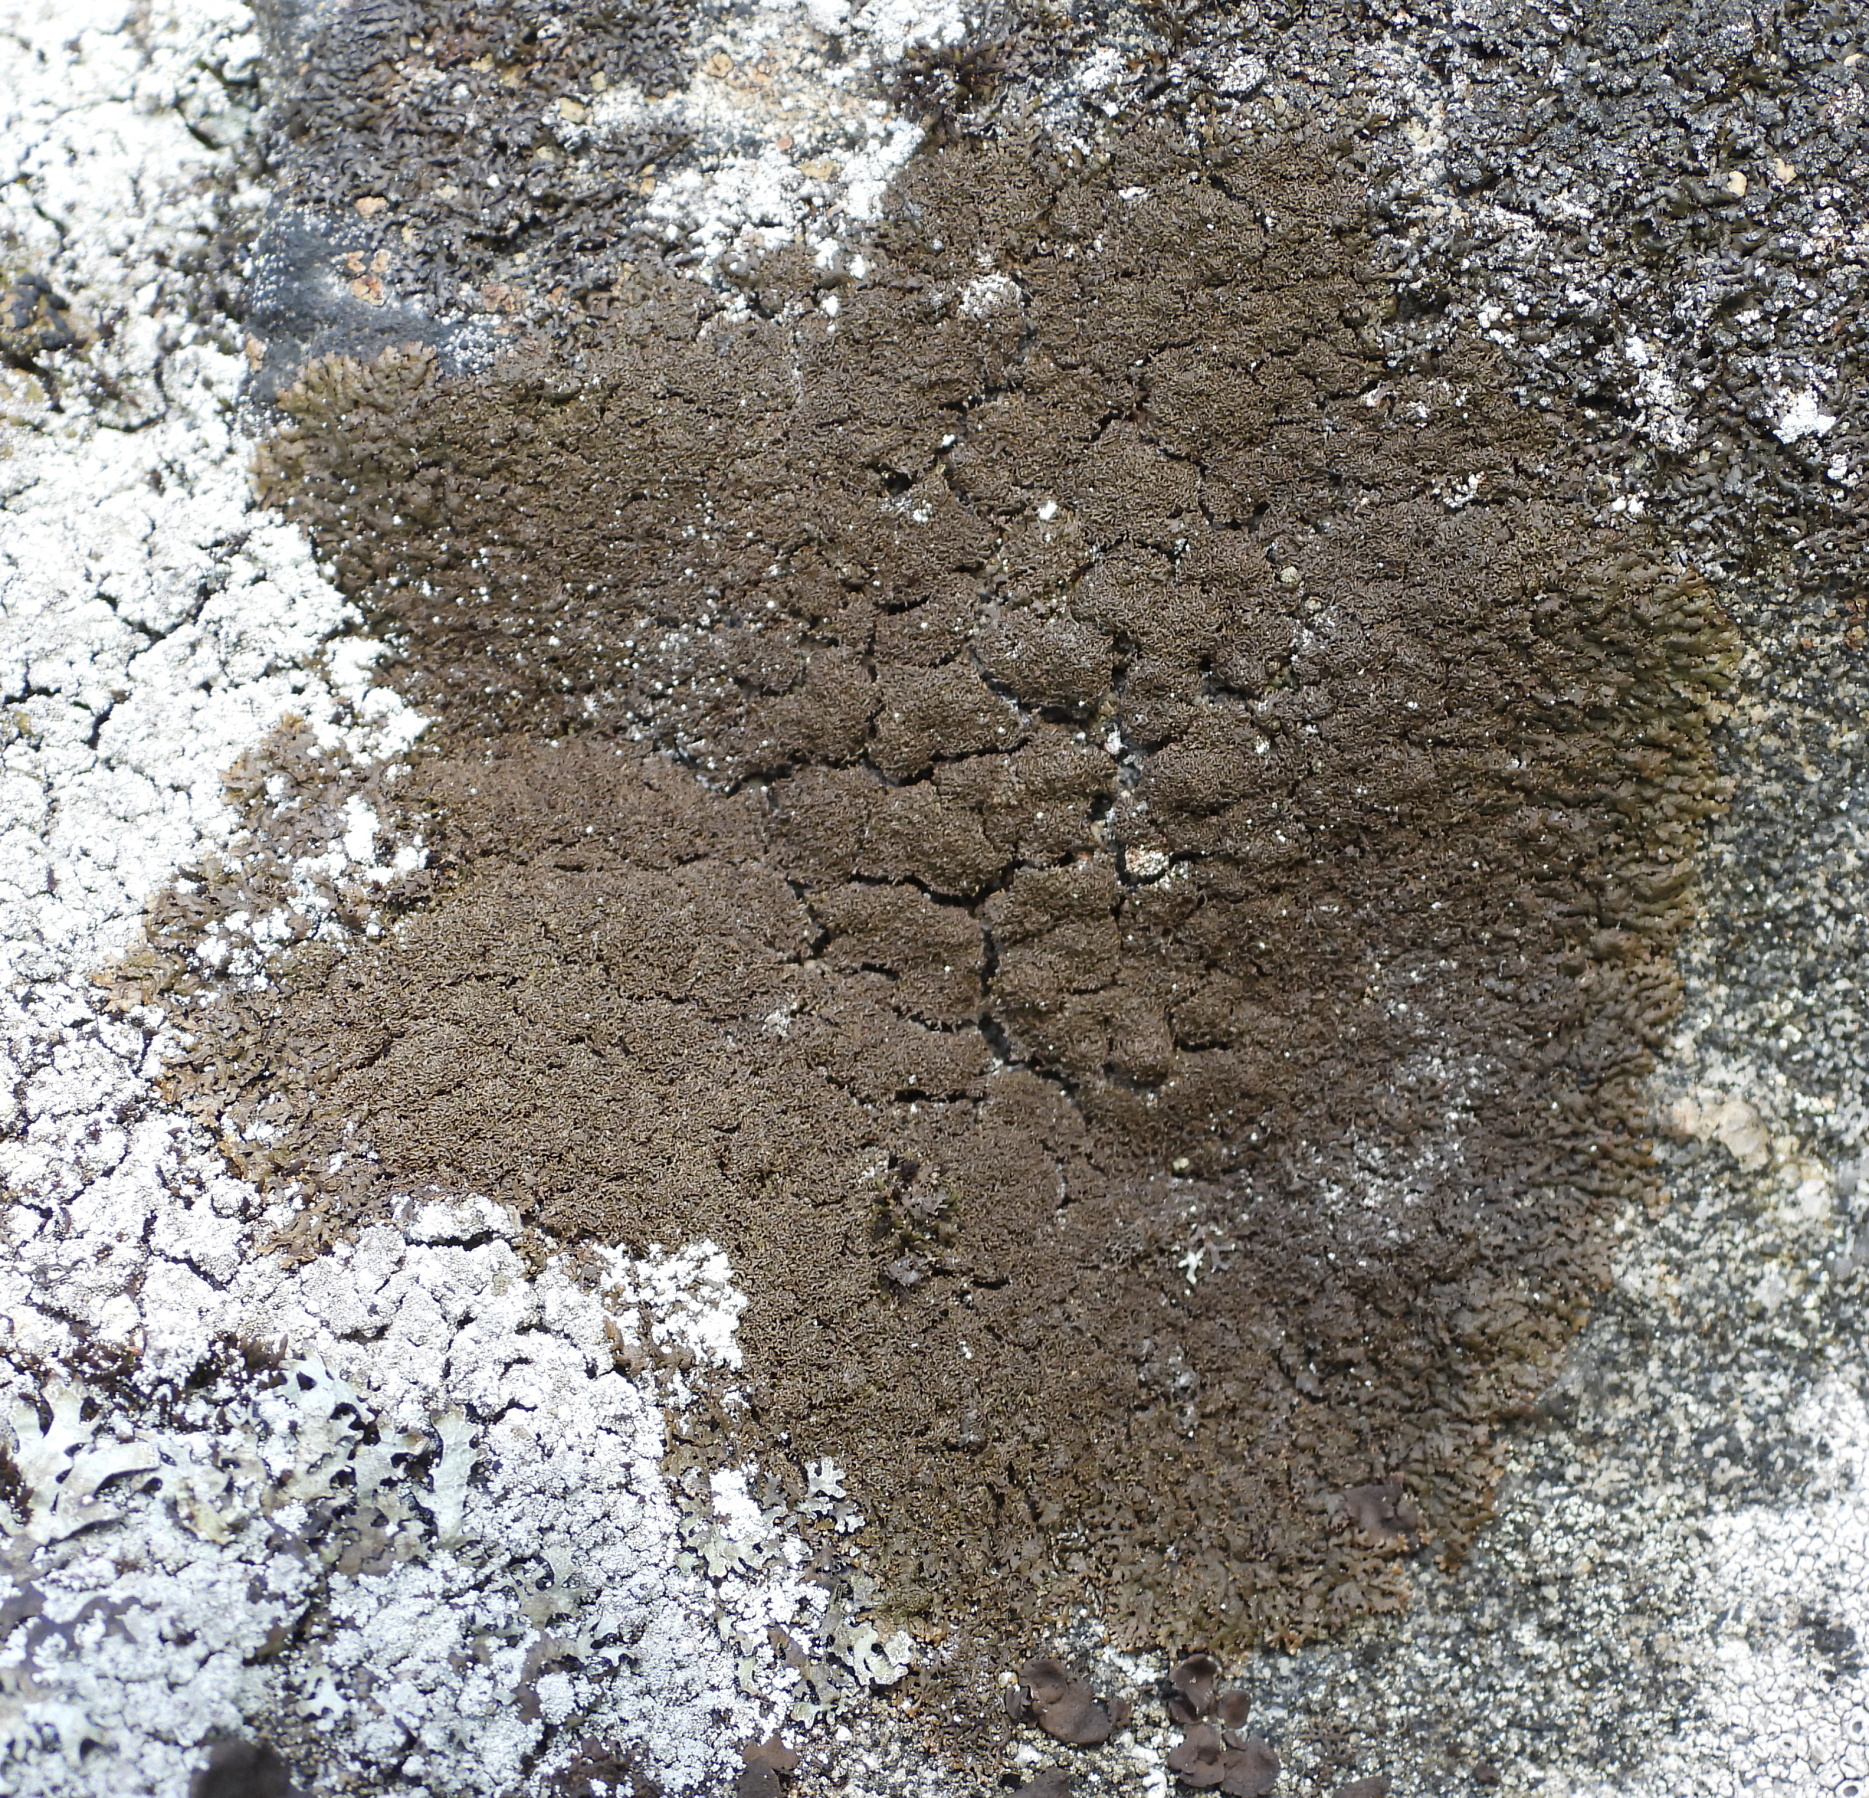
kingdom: Fungi
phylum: Ascomycota
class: Lecanoromycetes
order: Lecanorales
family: Parmeliaceae
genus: Montanelia
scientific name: Montanelia panniformis
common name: Shingled camouflage lichen
